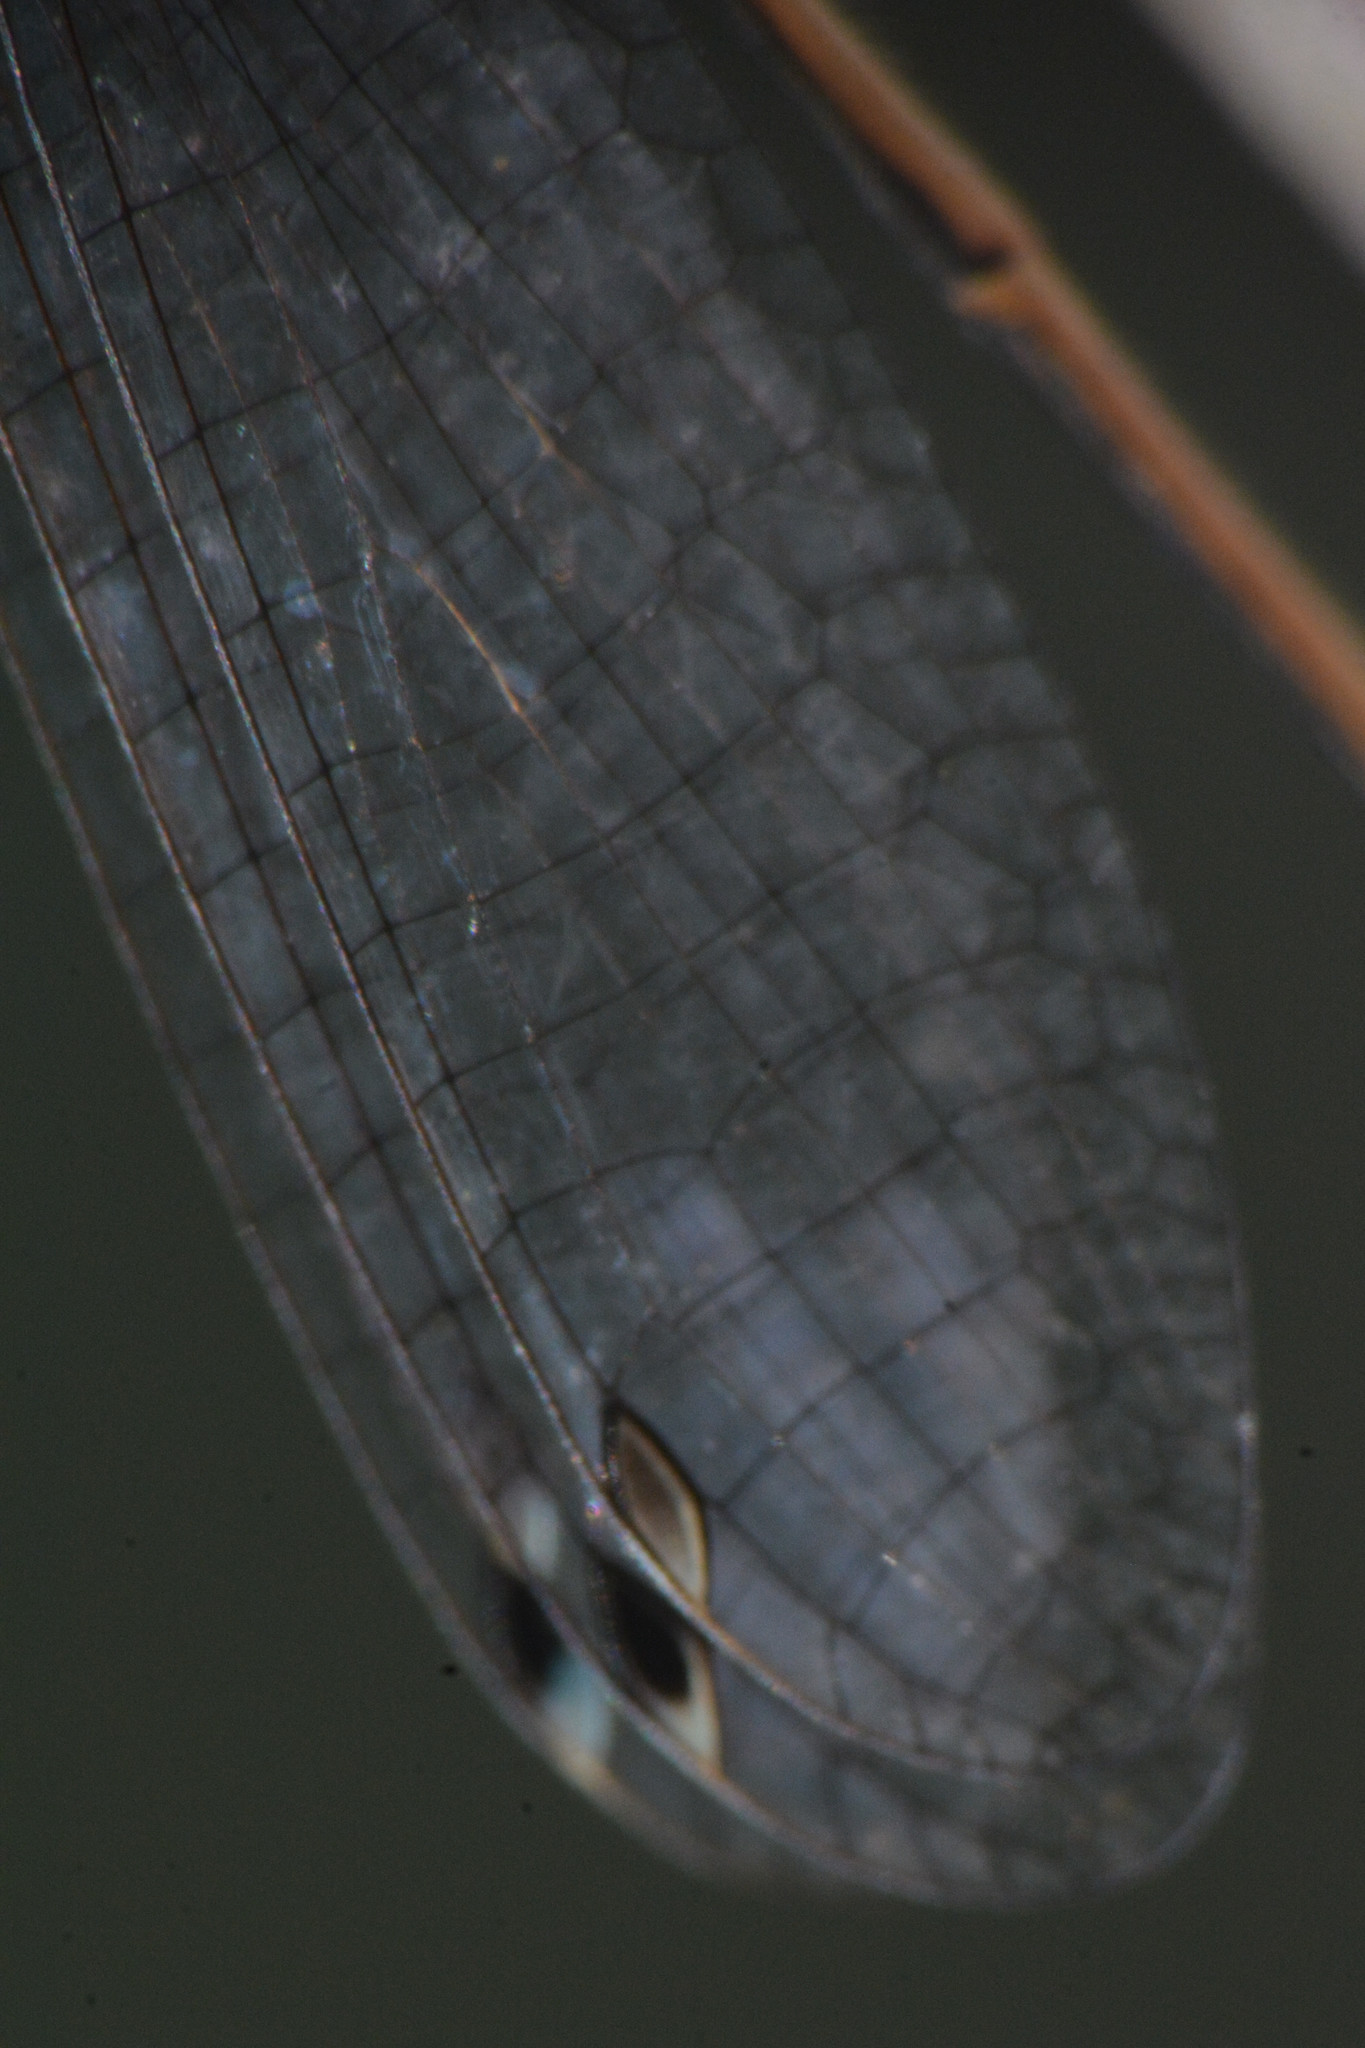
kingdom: Animalia
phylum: Arthropoda
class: Insecta
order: Odonata
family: Coenagrionidae
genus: Ischnura
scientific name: Ischnura elegans
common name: Blue-tailed damselfly
